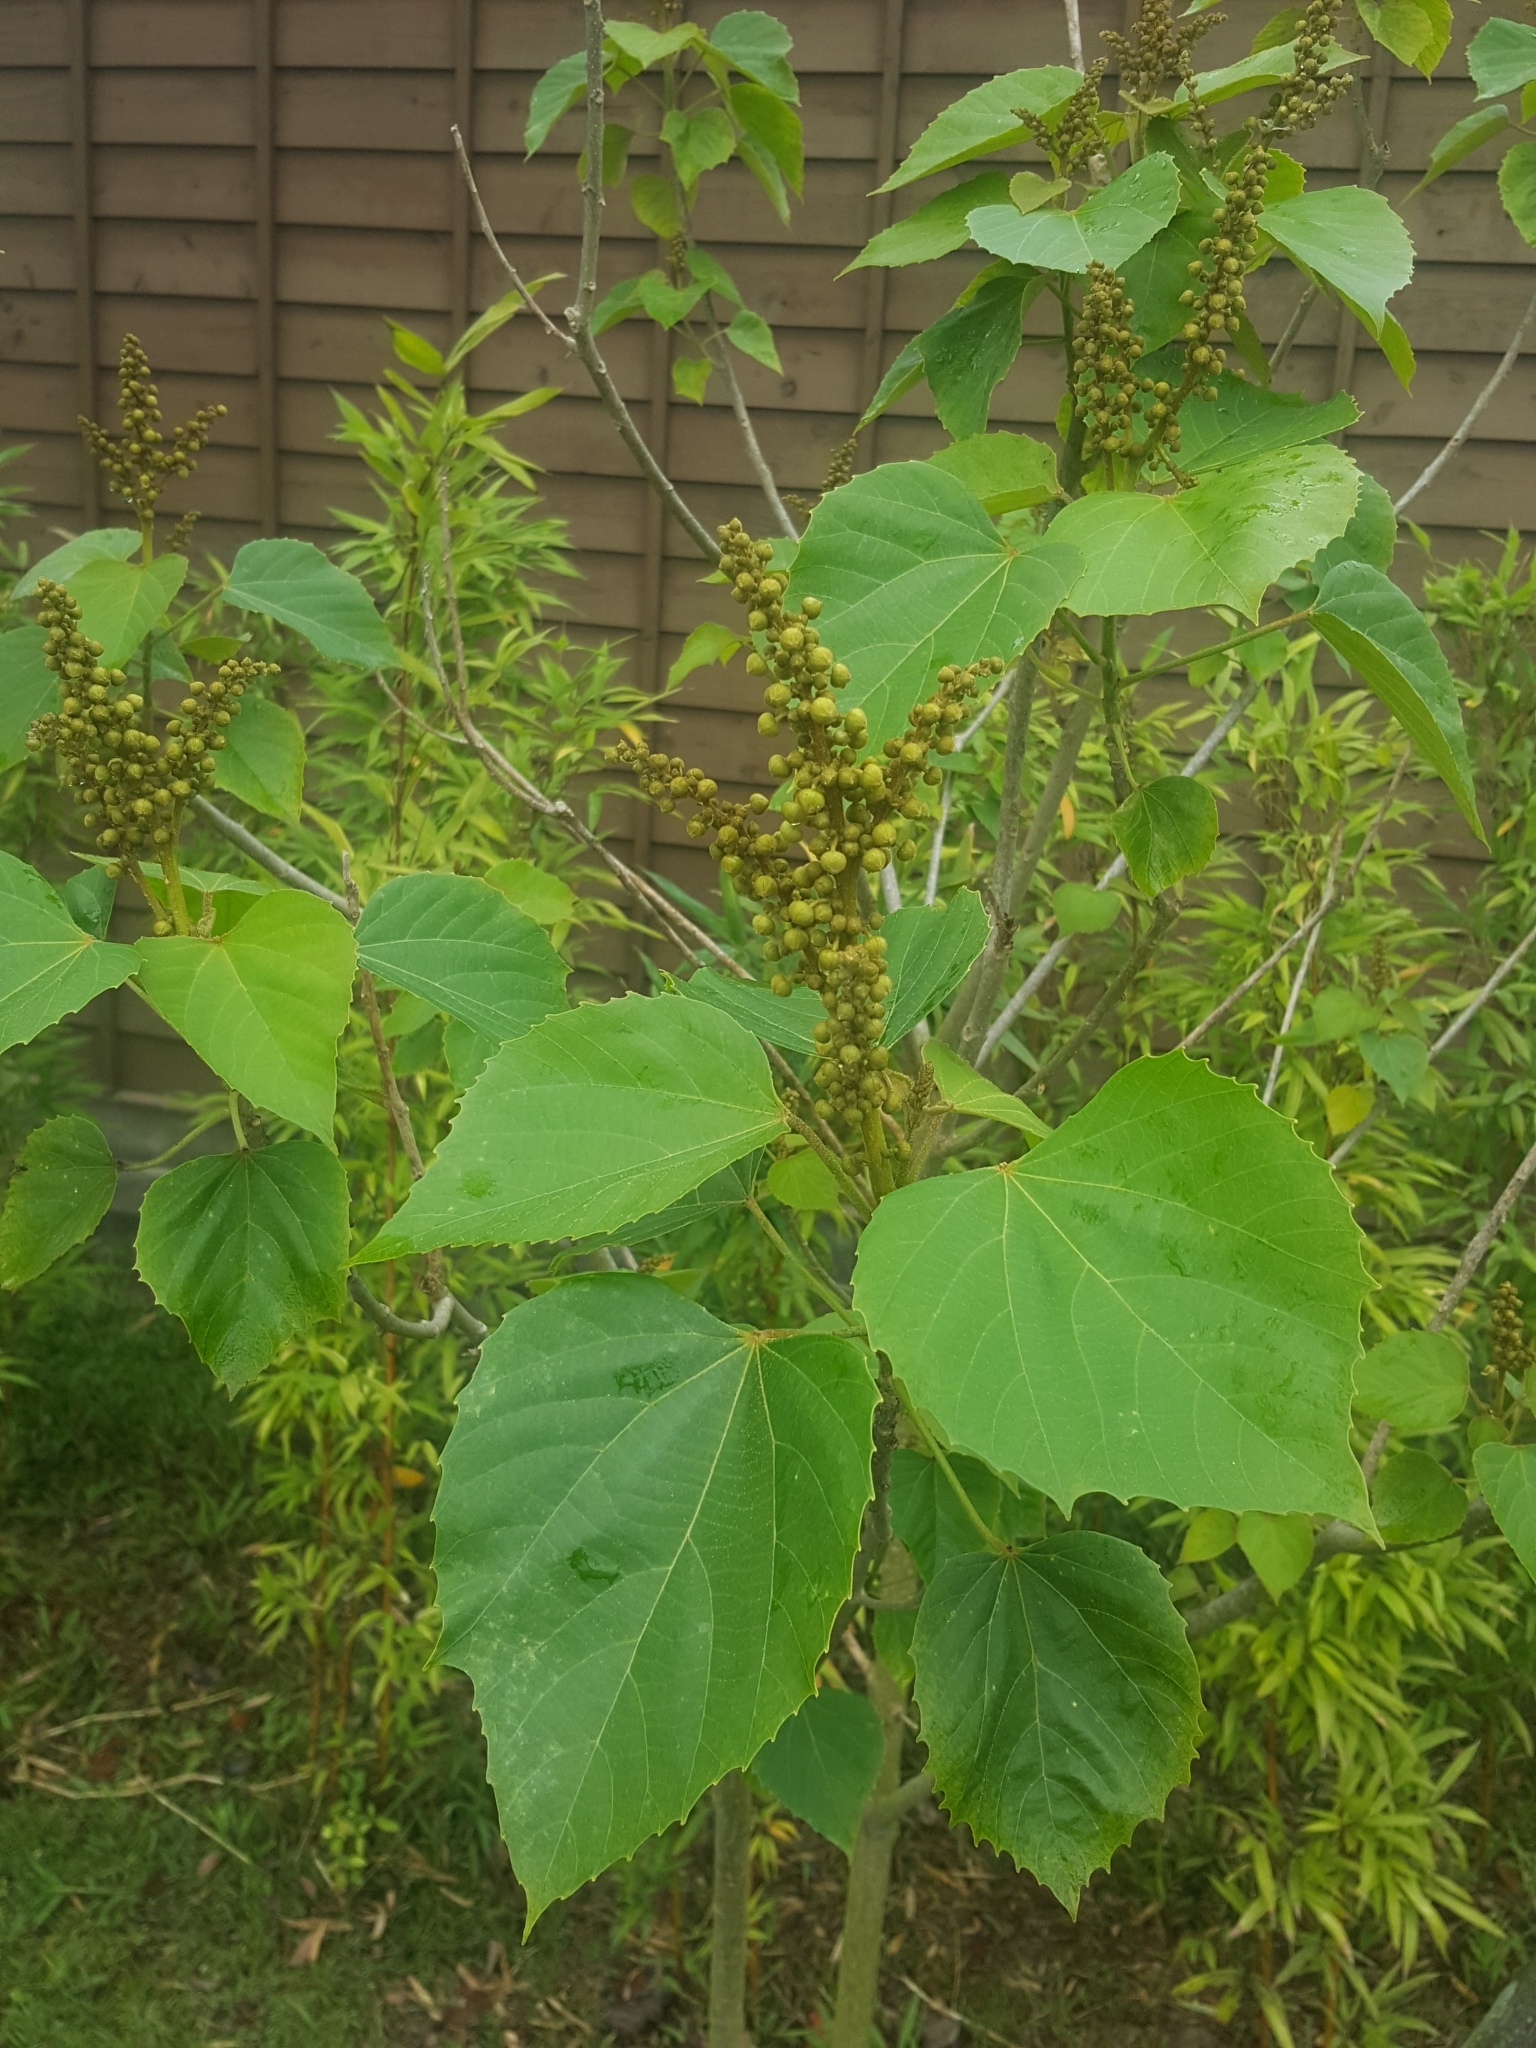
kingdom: Plantae
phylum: Tracheophyta
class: Magnoliopsida
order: Malpighiales
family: Euphorbiaceae
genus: Melanolepis
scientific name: Melanolepis multiglandulosa
